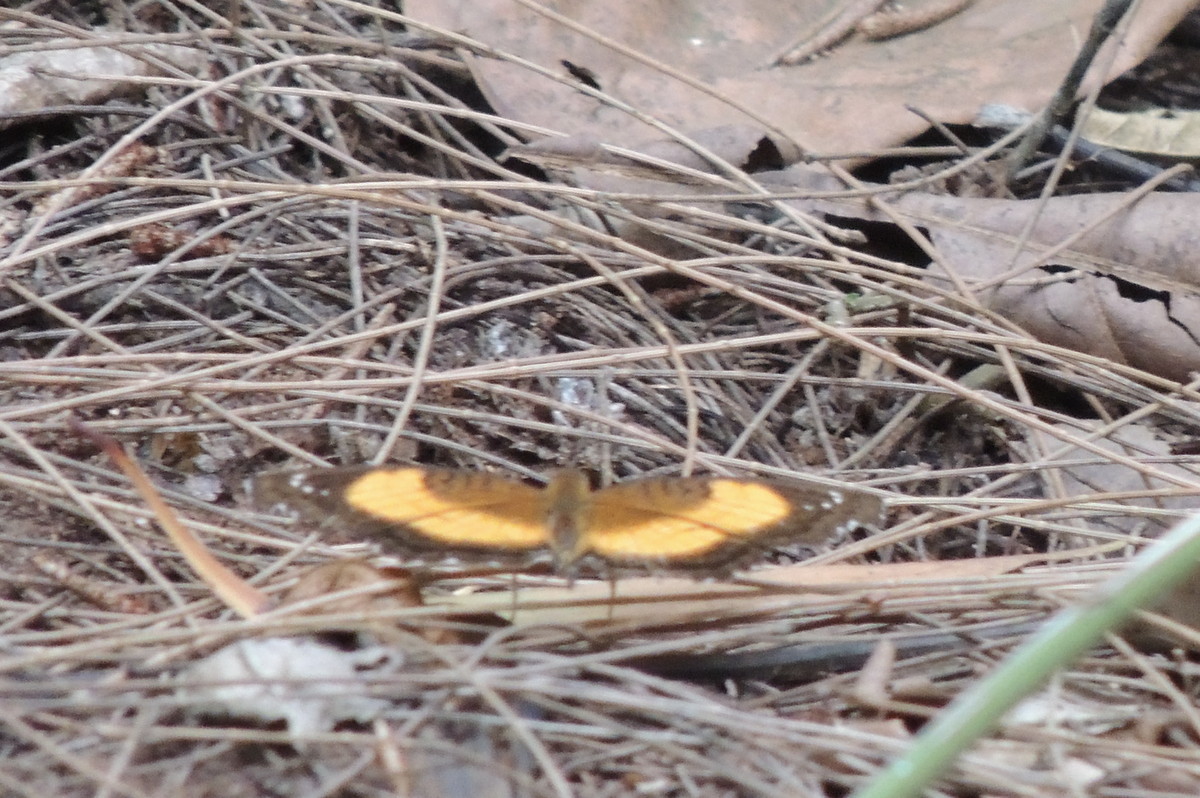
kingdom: Animalia
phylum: Arthropoda
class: Insecta
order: Lepidoptera
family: Nymphalidae
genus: Junonia
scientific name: Junonia terea
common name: Soldier pansy
